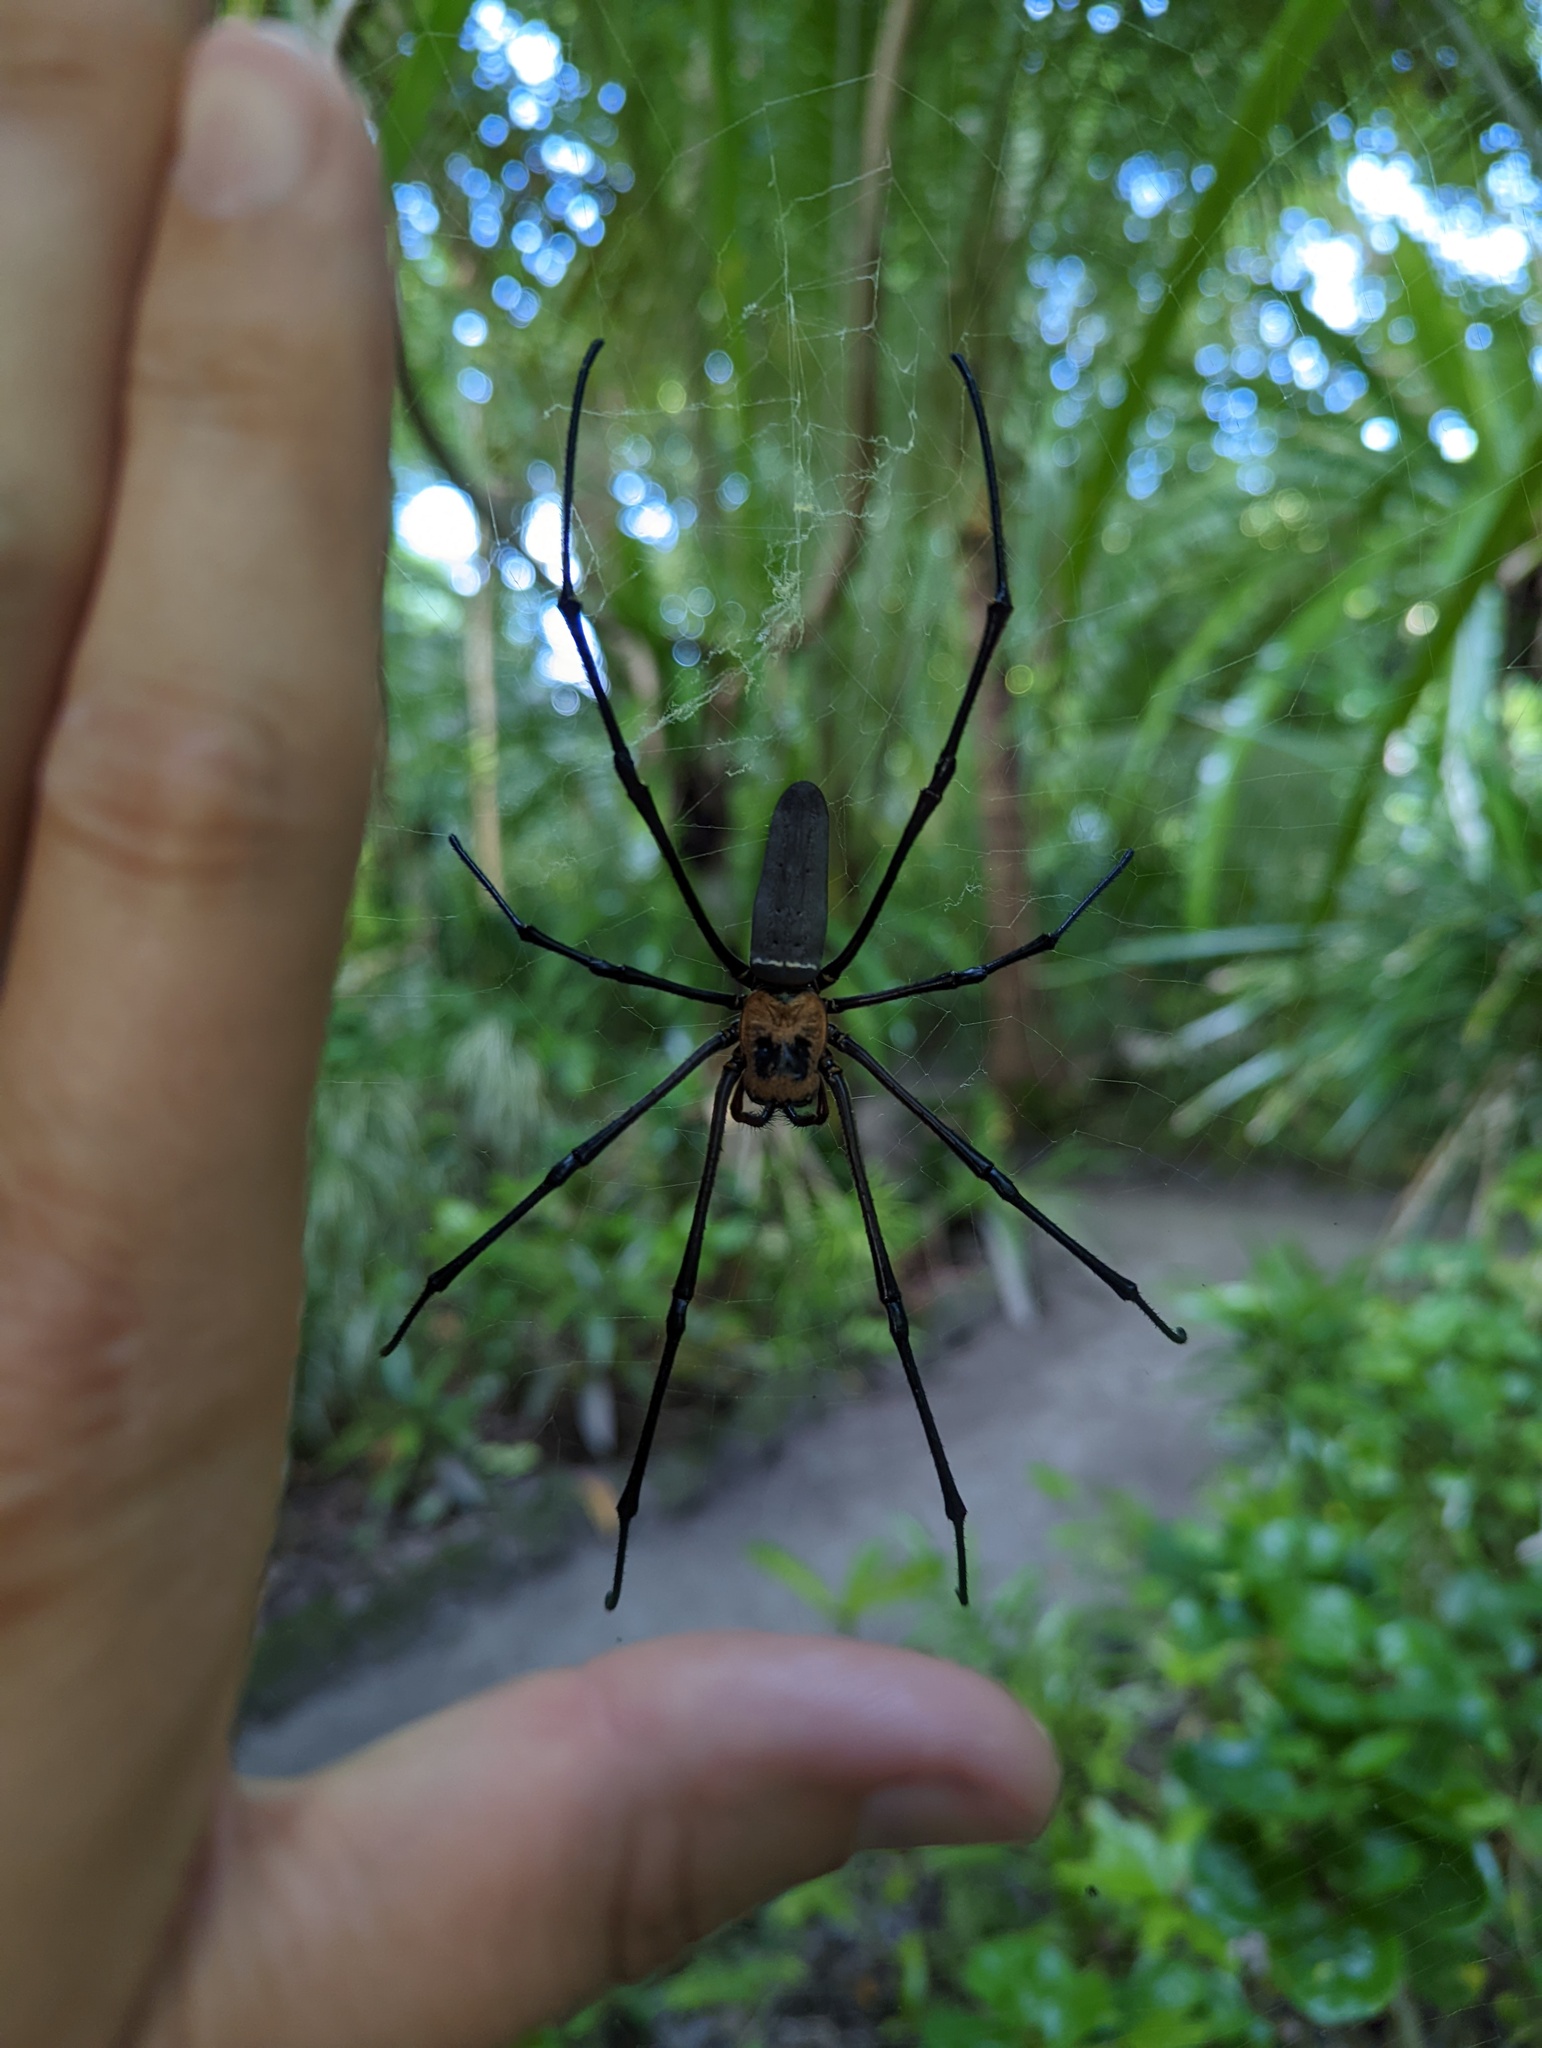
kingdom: Animalia
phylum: Arthropoda
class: Arachnida
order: Araneae
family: Araneidae
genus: Nephila
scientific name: Nephila pilipes
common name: Giant golden orb weaver
